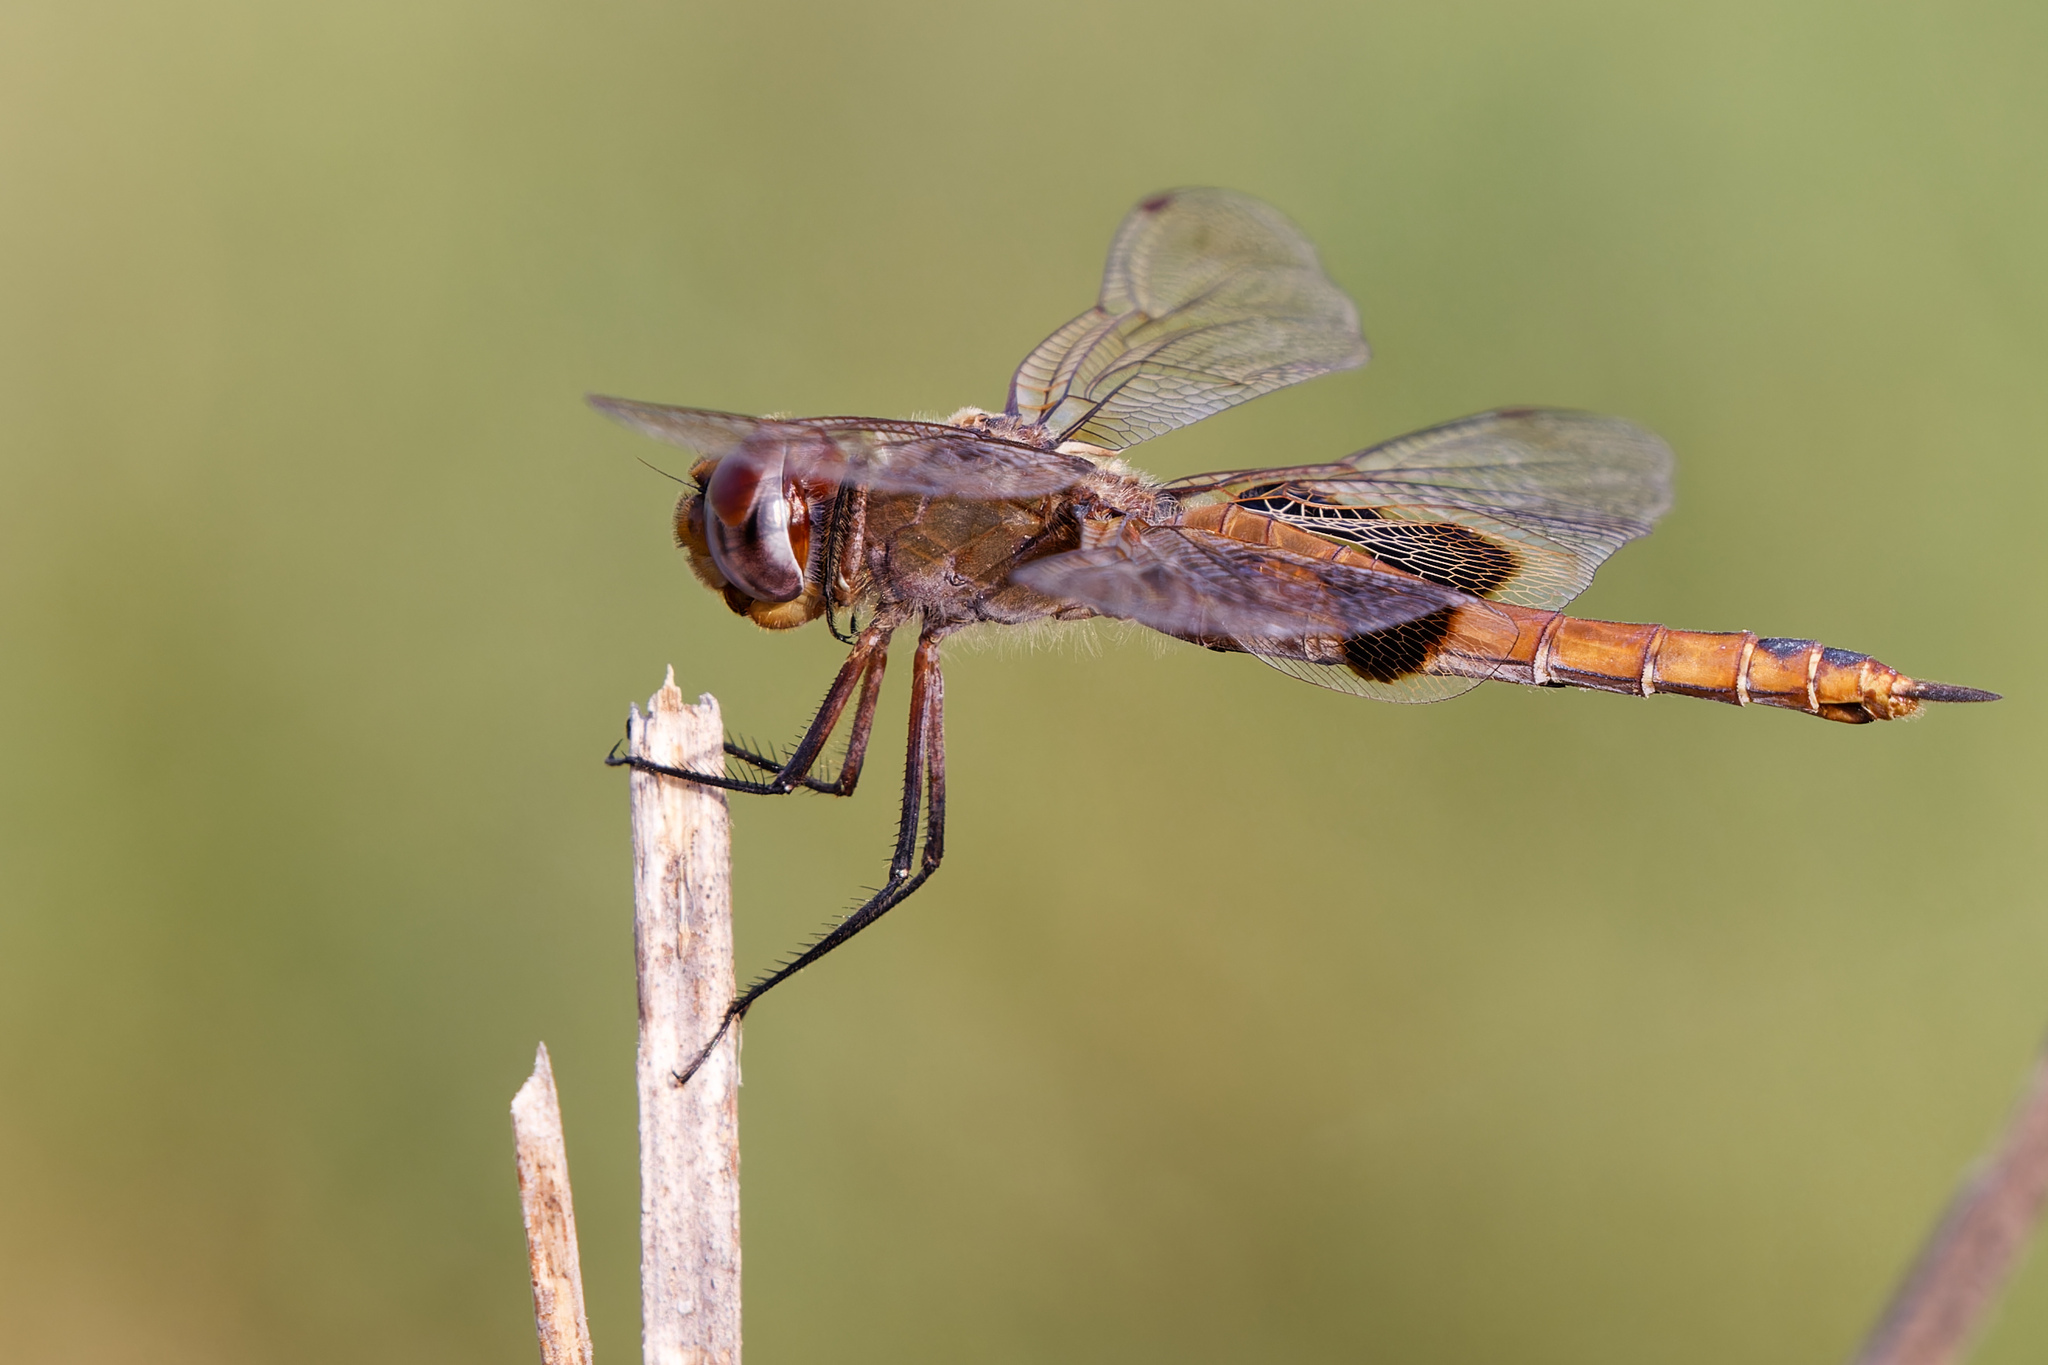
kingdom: Animalia
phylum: Arthropoda
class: Insecta
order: Odonata
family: Libellulidae
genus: Tramea
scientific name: Tramea onusta
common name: Red saddlebags
